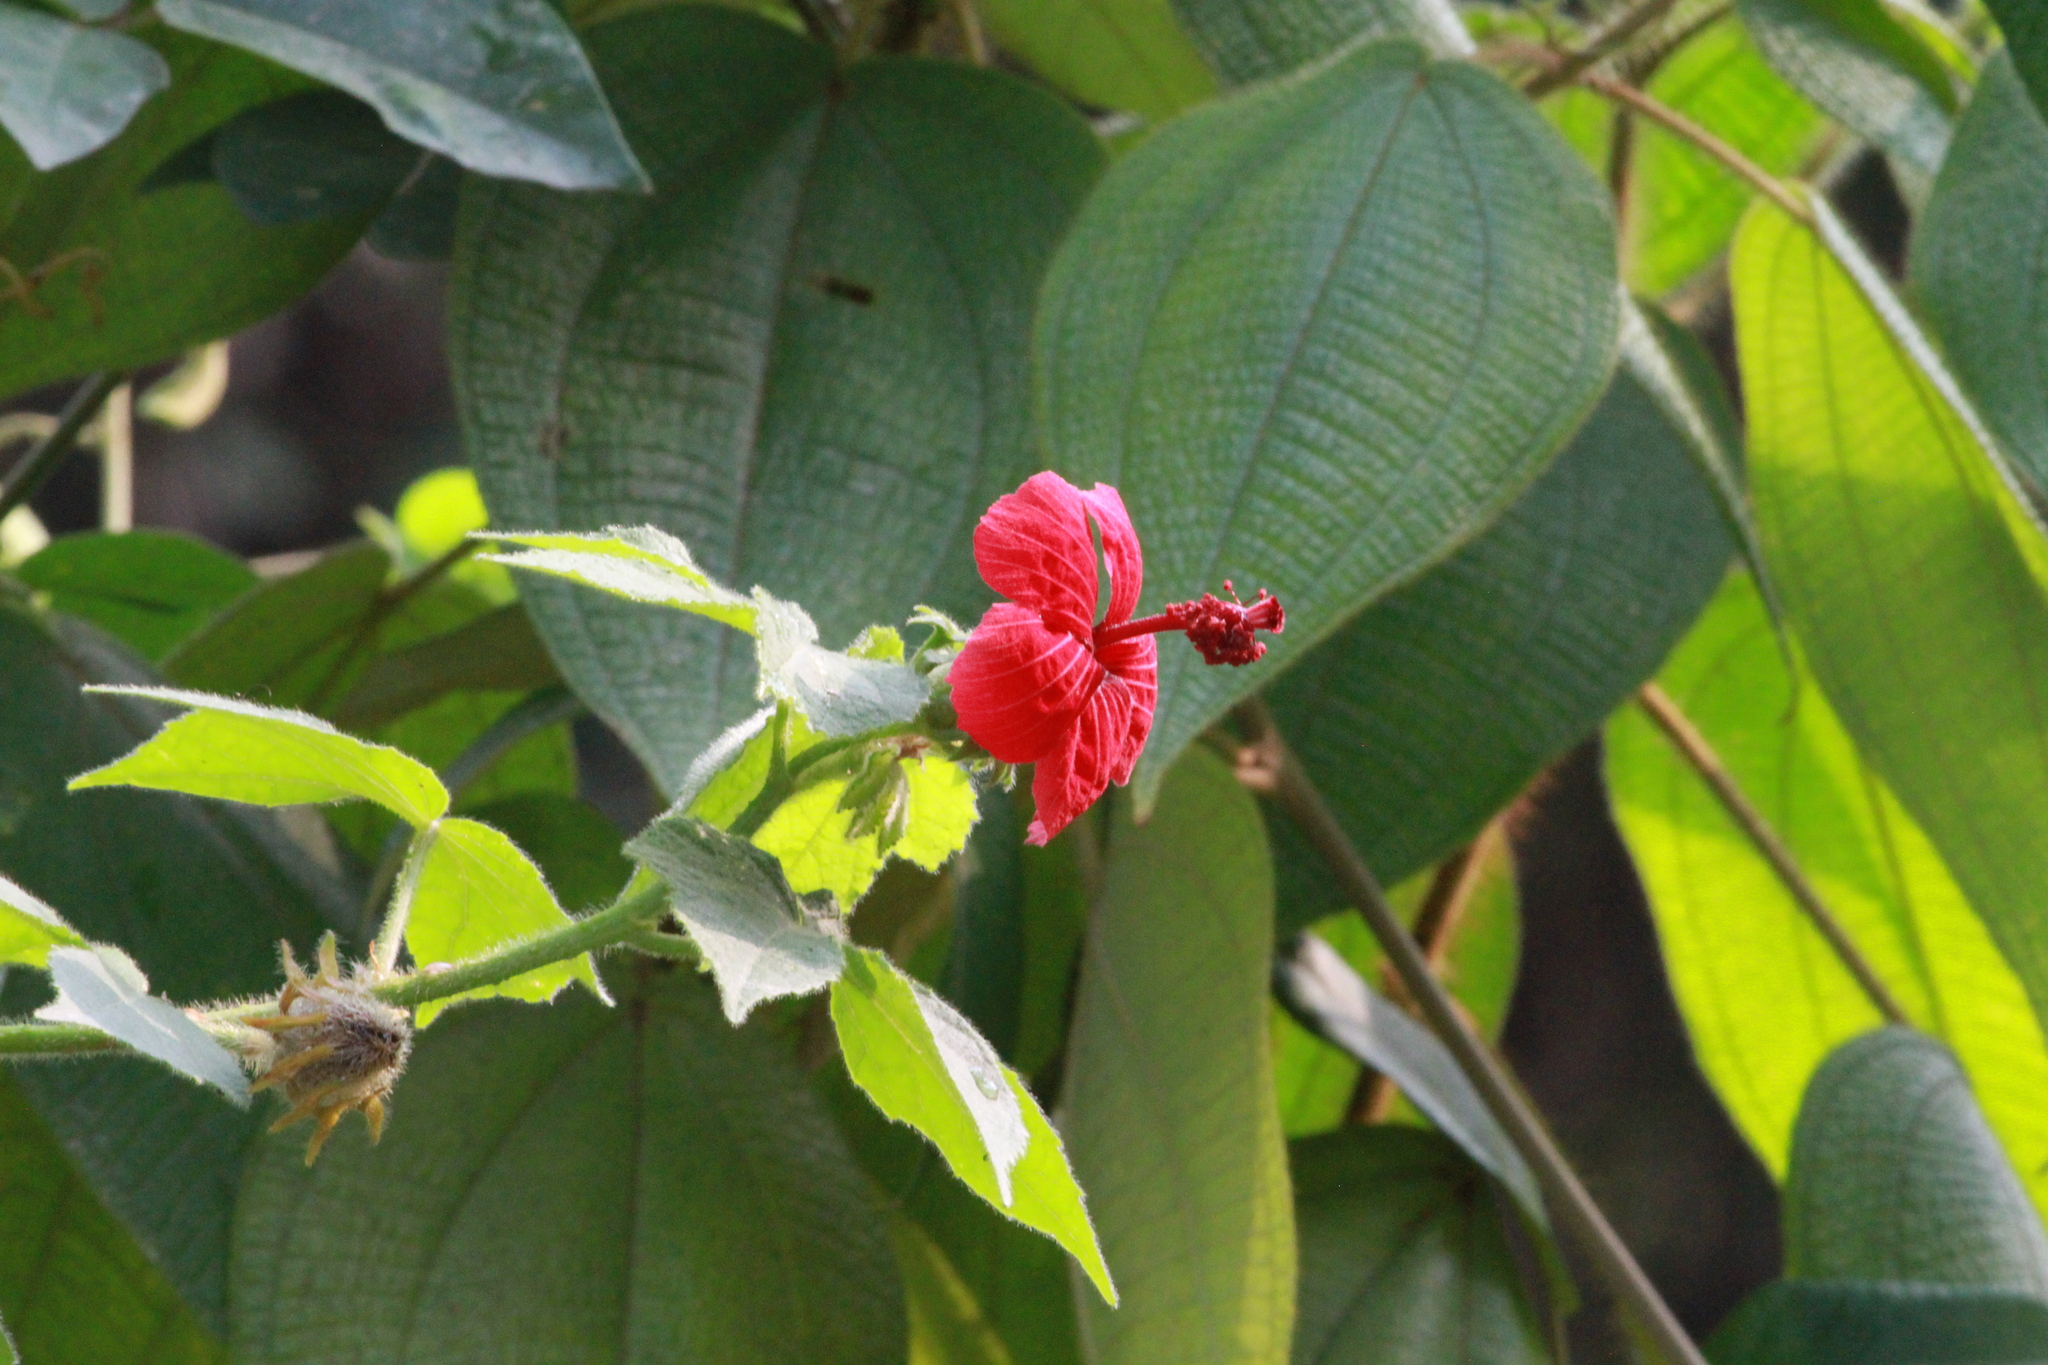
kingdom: Plantae
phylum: Tracheophyta
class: Magnoliopsida
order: Malvales
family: Malvaceae
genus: Hibiscus
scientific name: Hibiscus uncinellus
